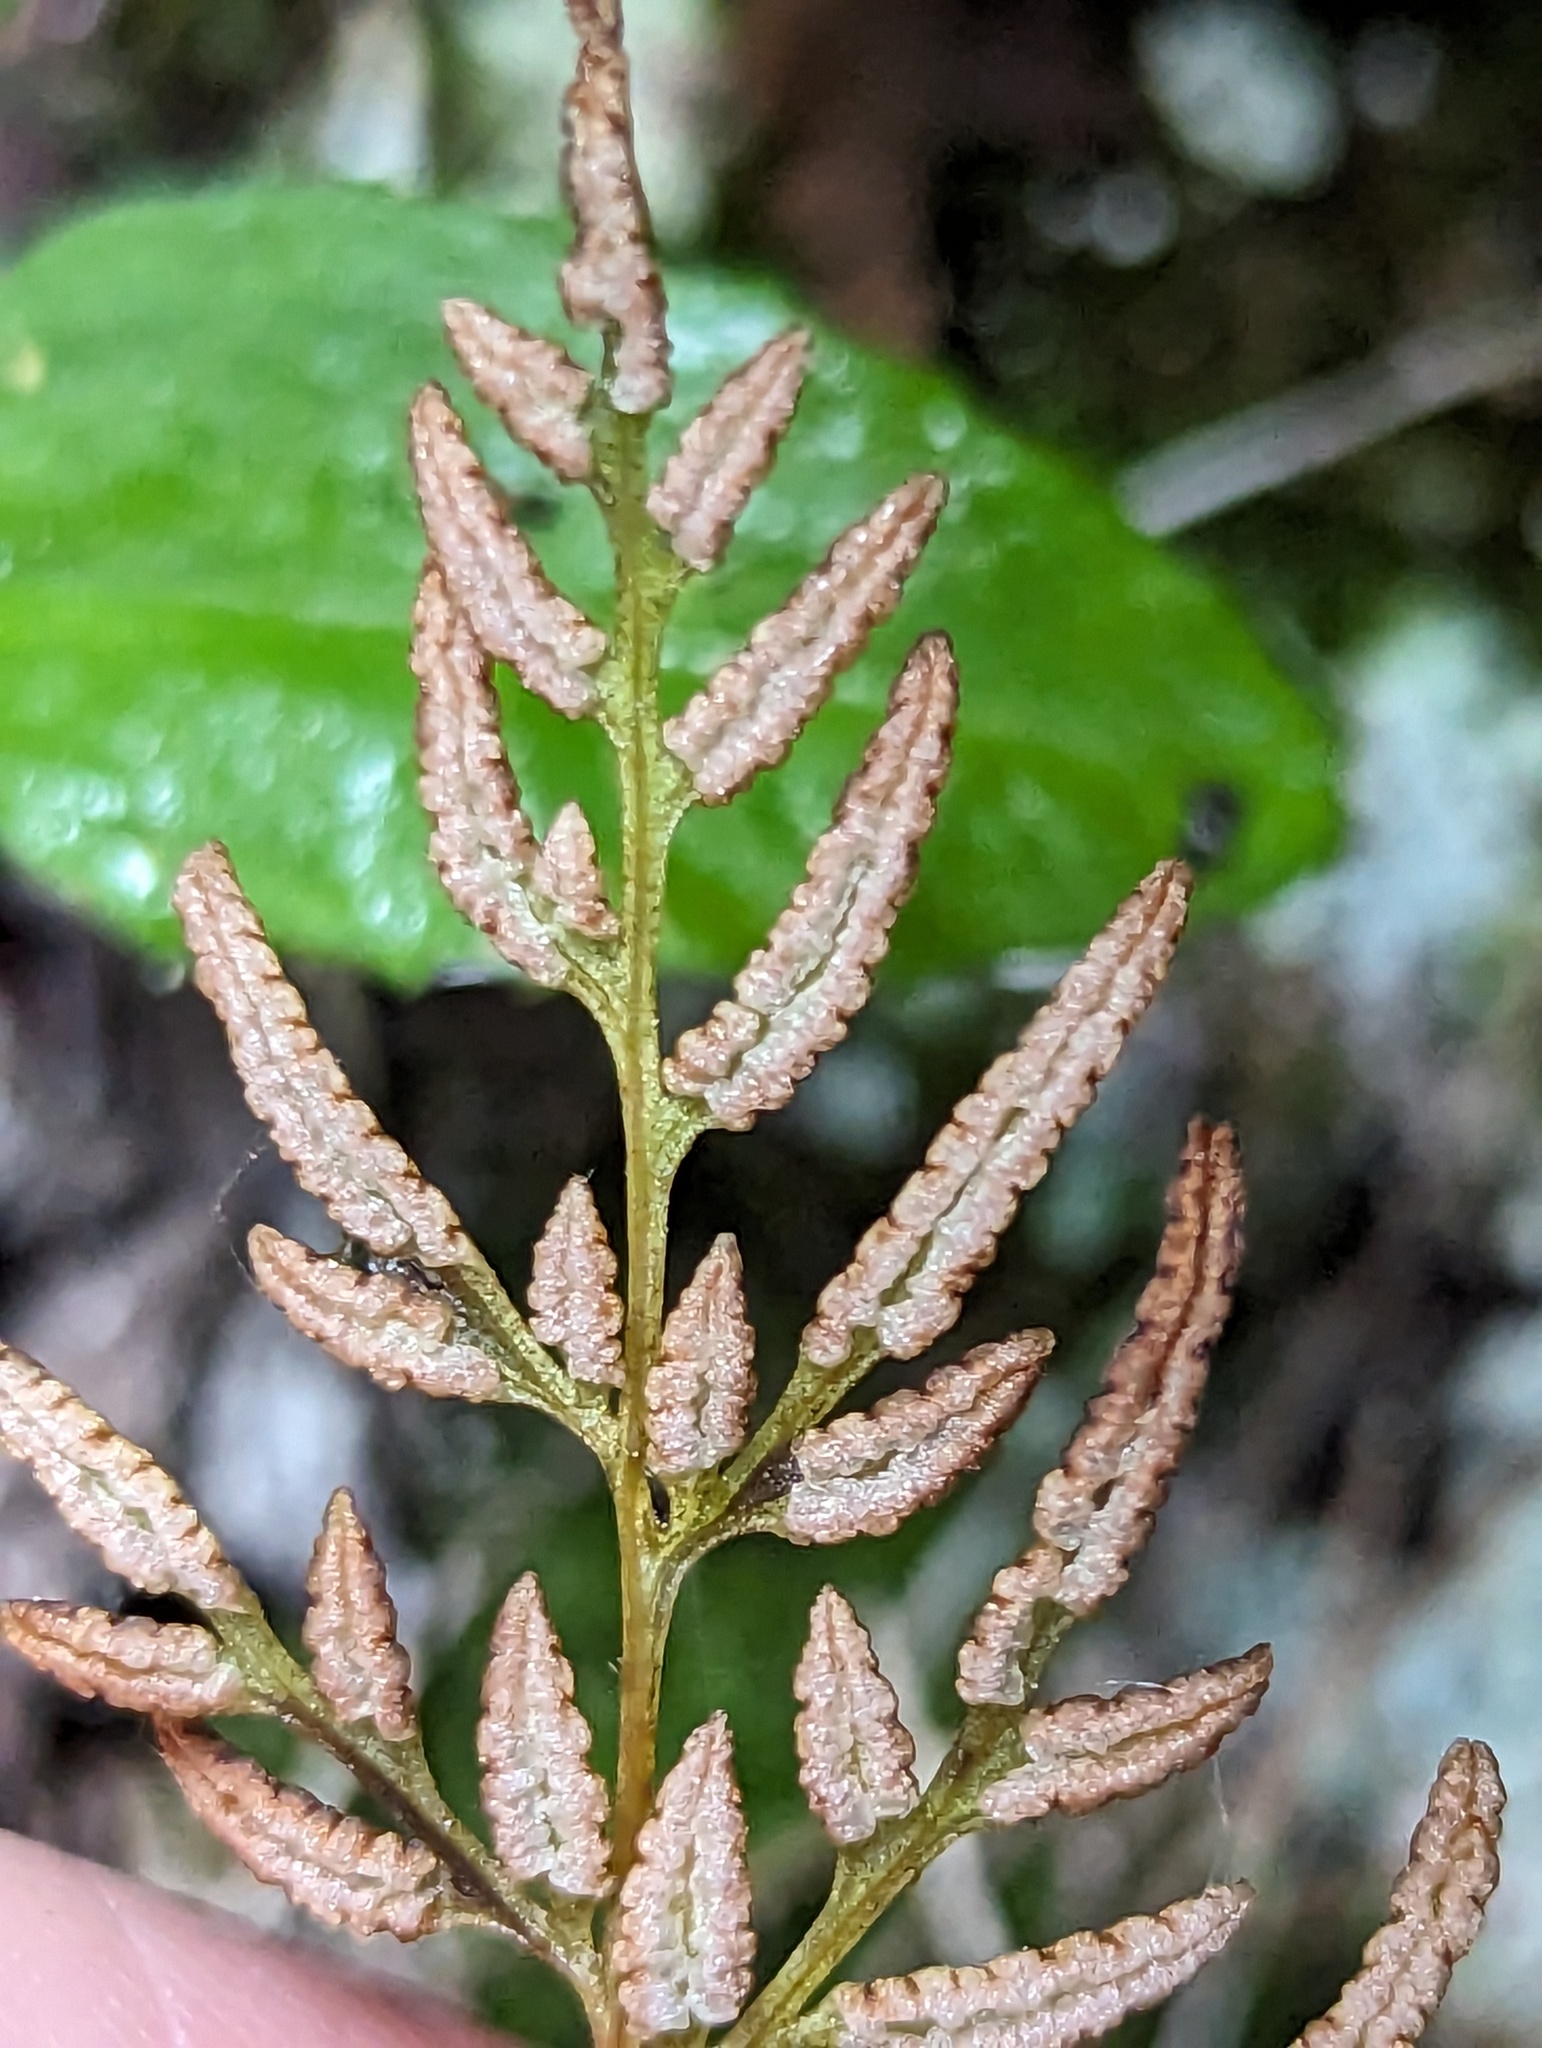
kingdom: Plantae
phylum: Tracheophyta
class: Polypodiopsida
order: Polypodiales
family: Pteridaceae
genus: Cryptogramma
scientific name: Cryptogramma stelleri
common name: Cliff-brake
